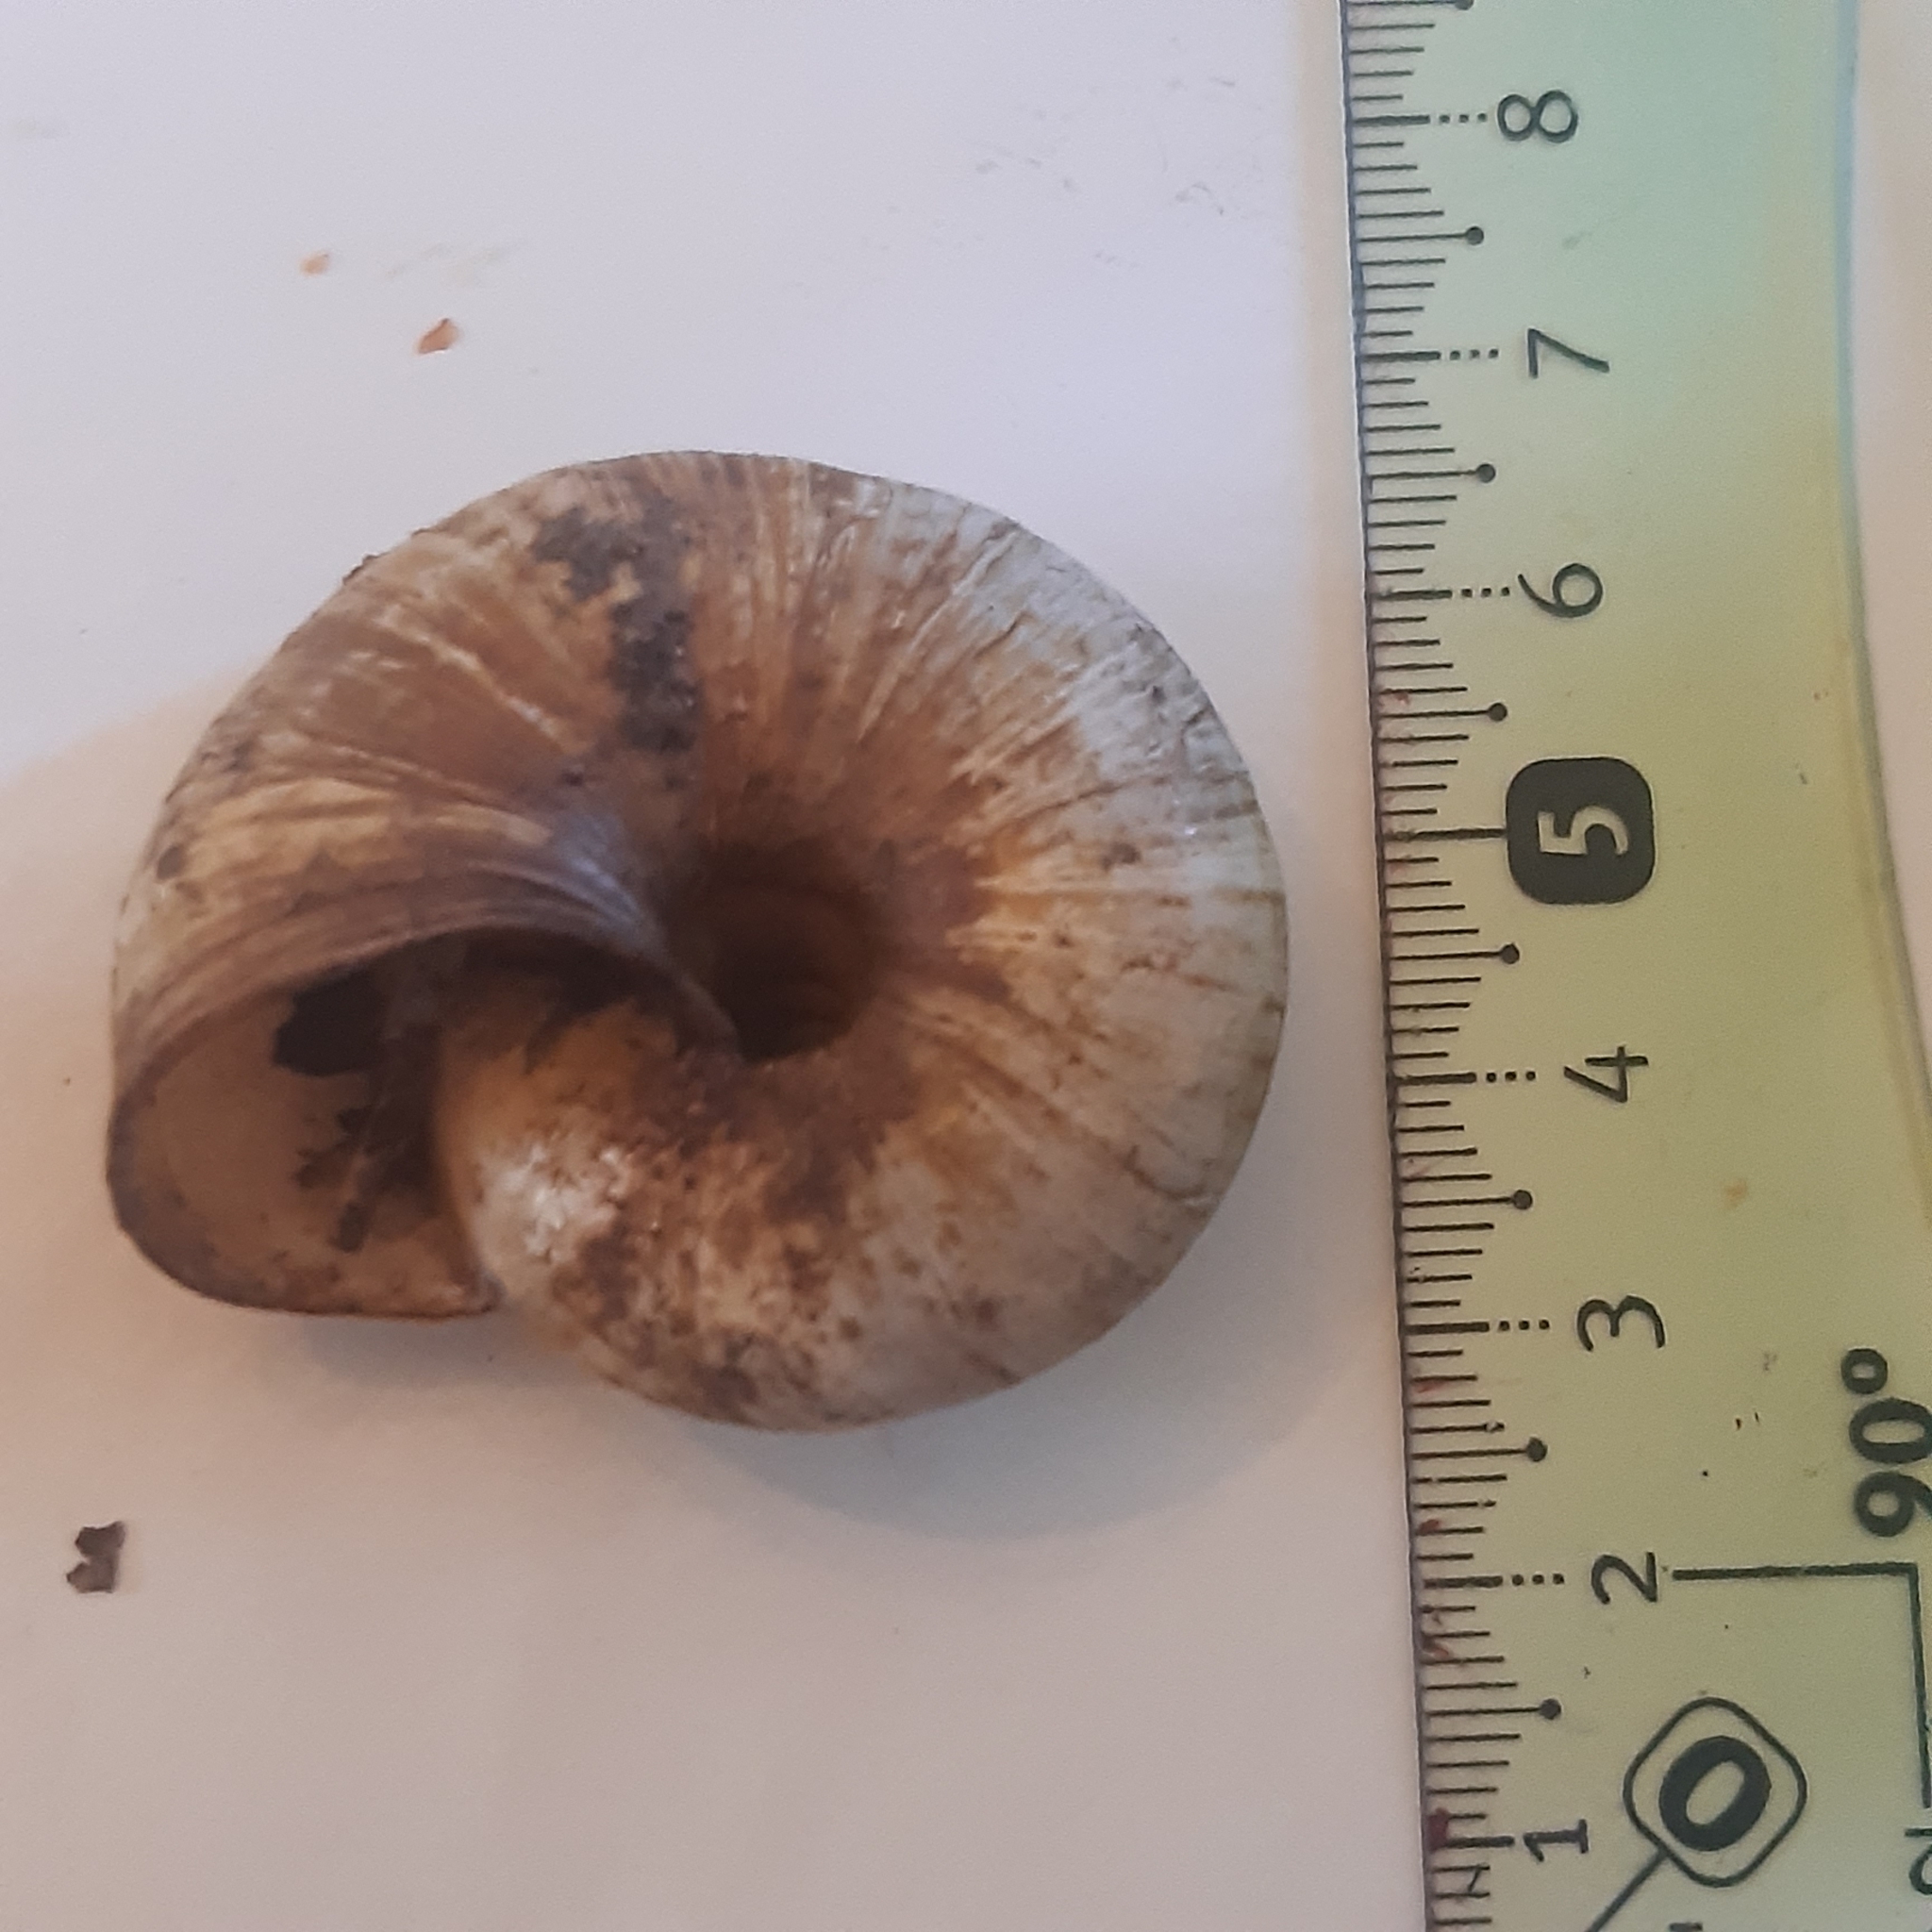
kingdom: Animalia
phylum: Mollusca
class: Gastropoda
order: Stylommatophora
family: Zonitidae
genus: Zonites
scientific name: Zonites algirus
